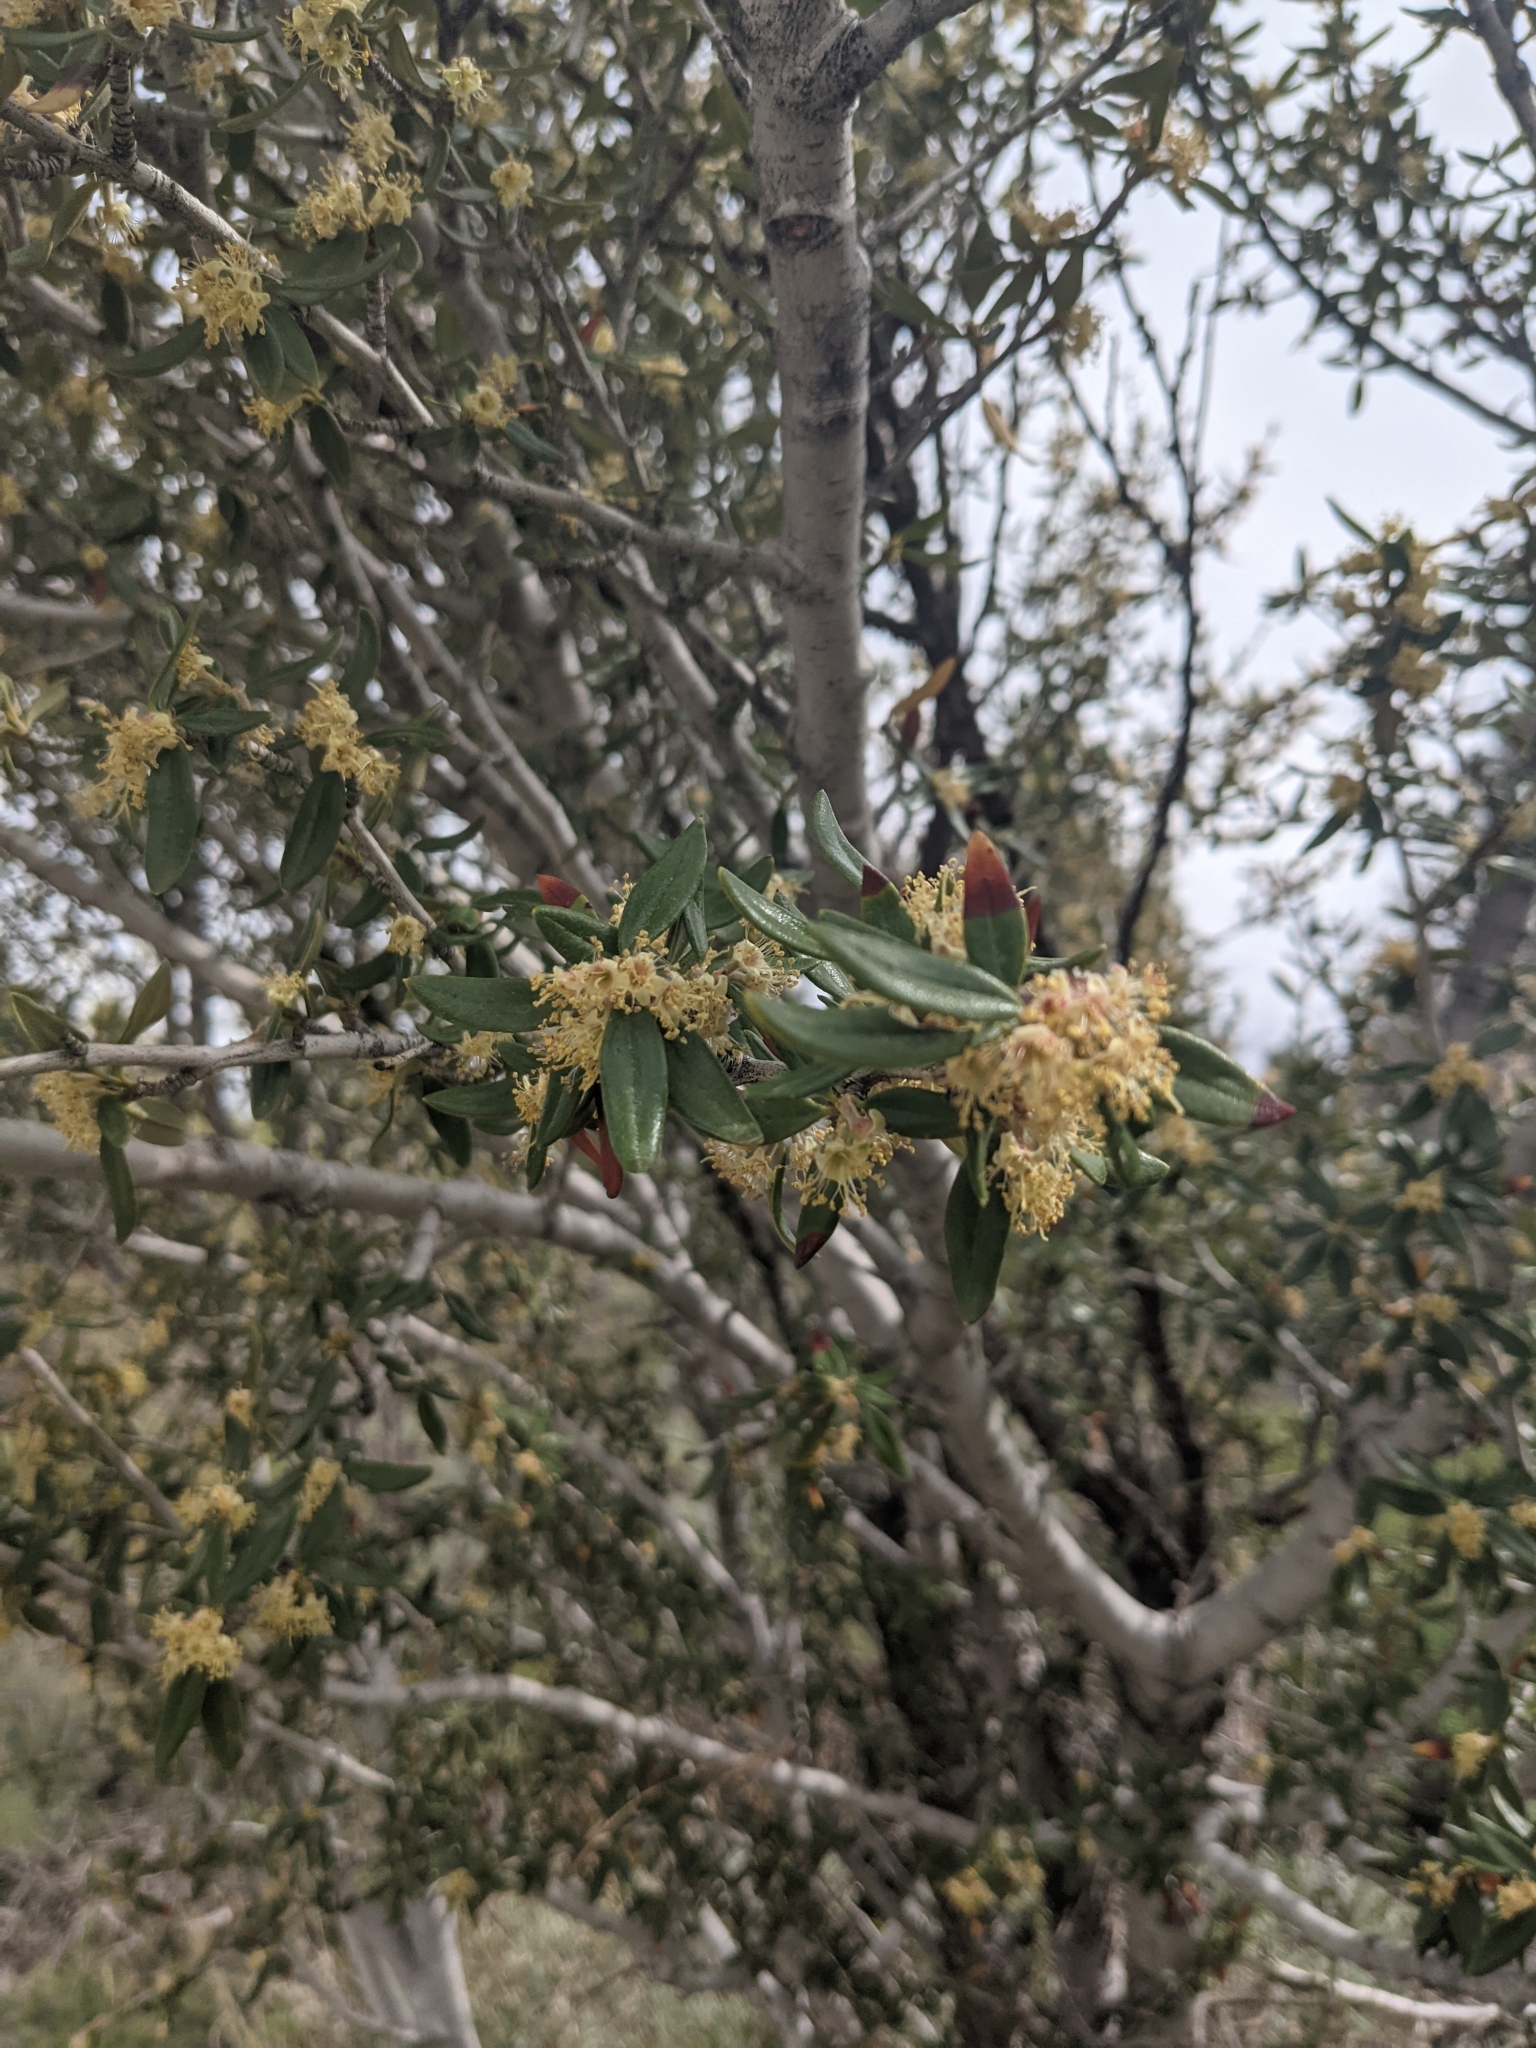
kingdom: Plantae
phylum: Tracheophyta
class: Magnoliopsida
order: Rosales
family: Rosaceae
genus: Cercocarpus
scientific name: Cercocarpus ledifolius
